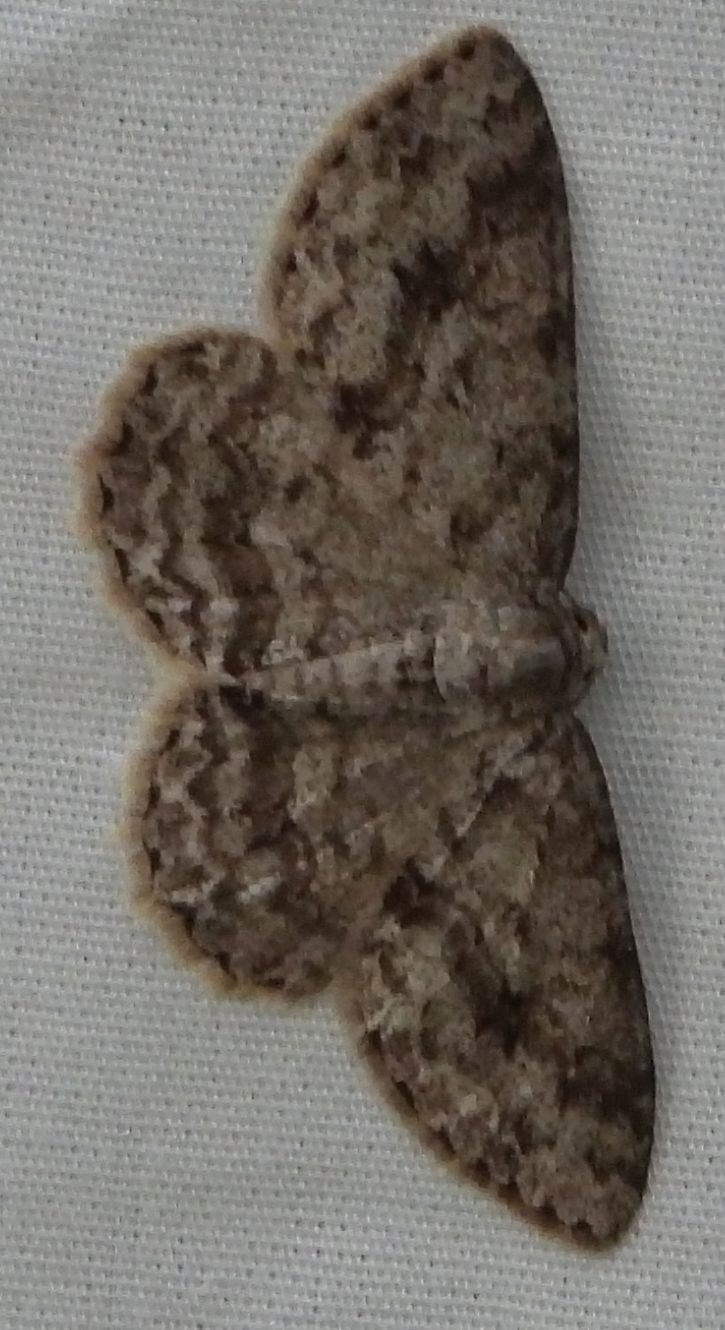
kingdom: Animalia
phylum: Arthropoda
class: Insecta
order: Lepidoptera
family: Geometridae
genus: Ectropis
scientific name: Ectropis crepuscularia
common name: Engrailed
